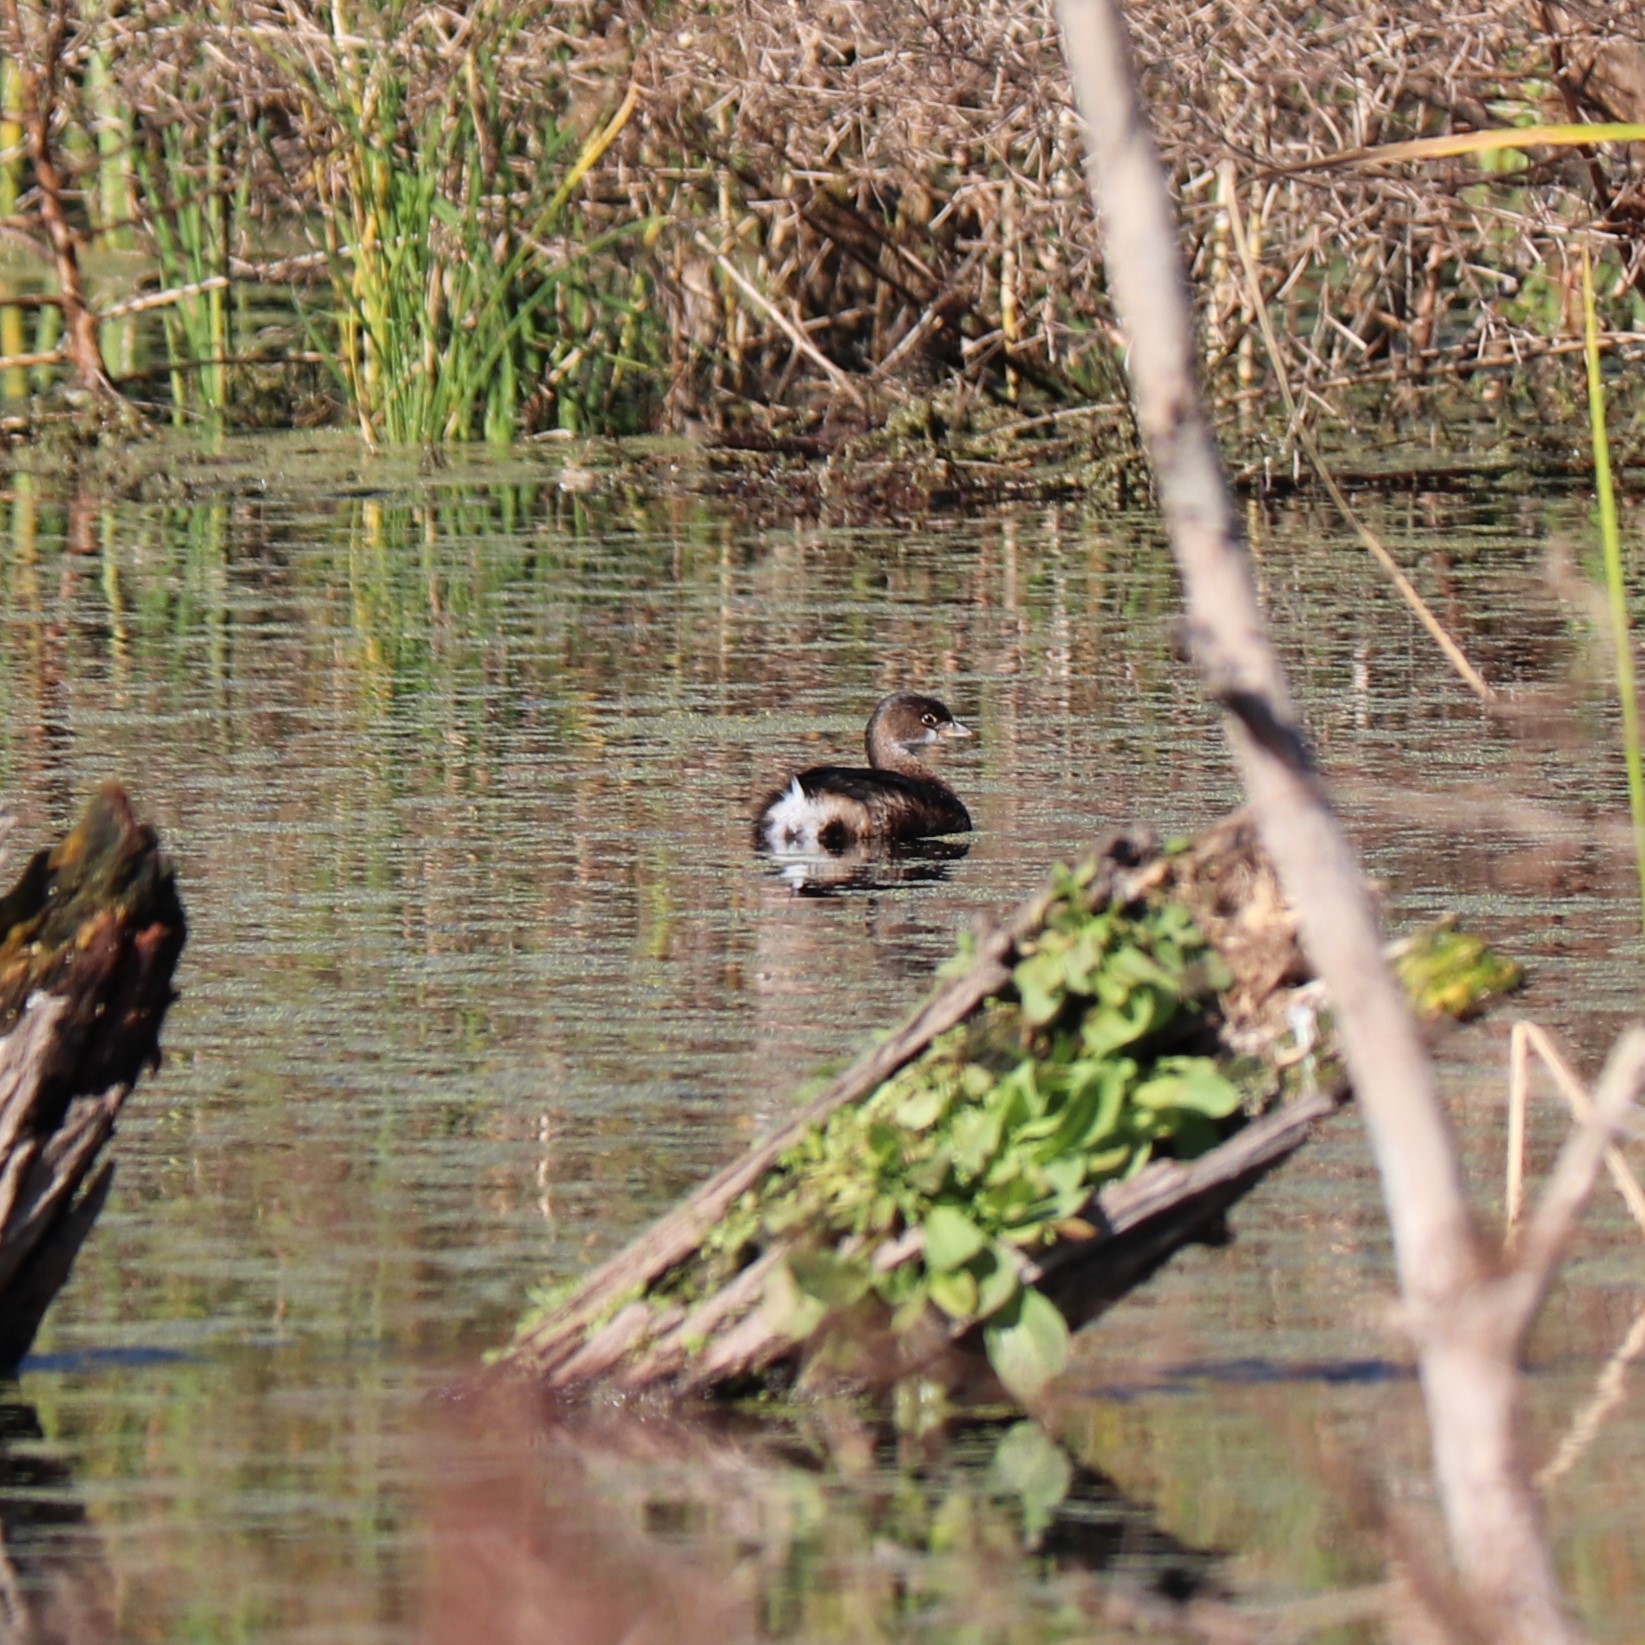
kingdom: Animalia
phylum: Chordata
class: Aves
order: Podicipediformes
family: Podicipedidae
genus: Podilymbus
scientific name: Podilymbus podiceps
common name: Pied-billed grebe
